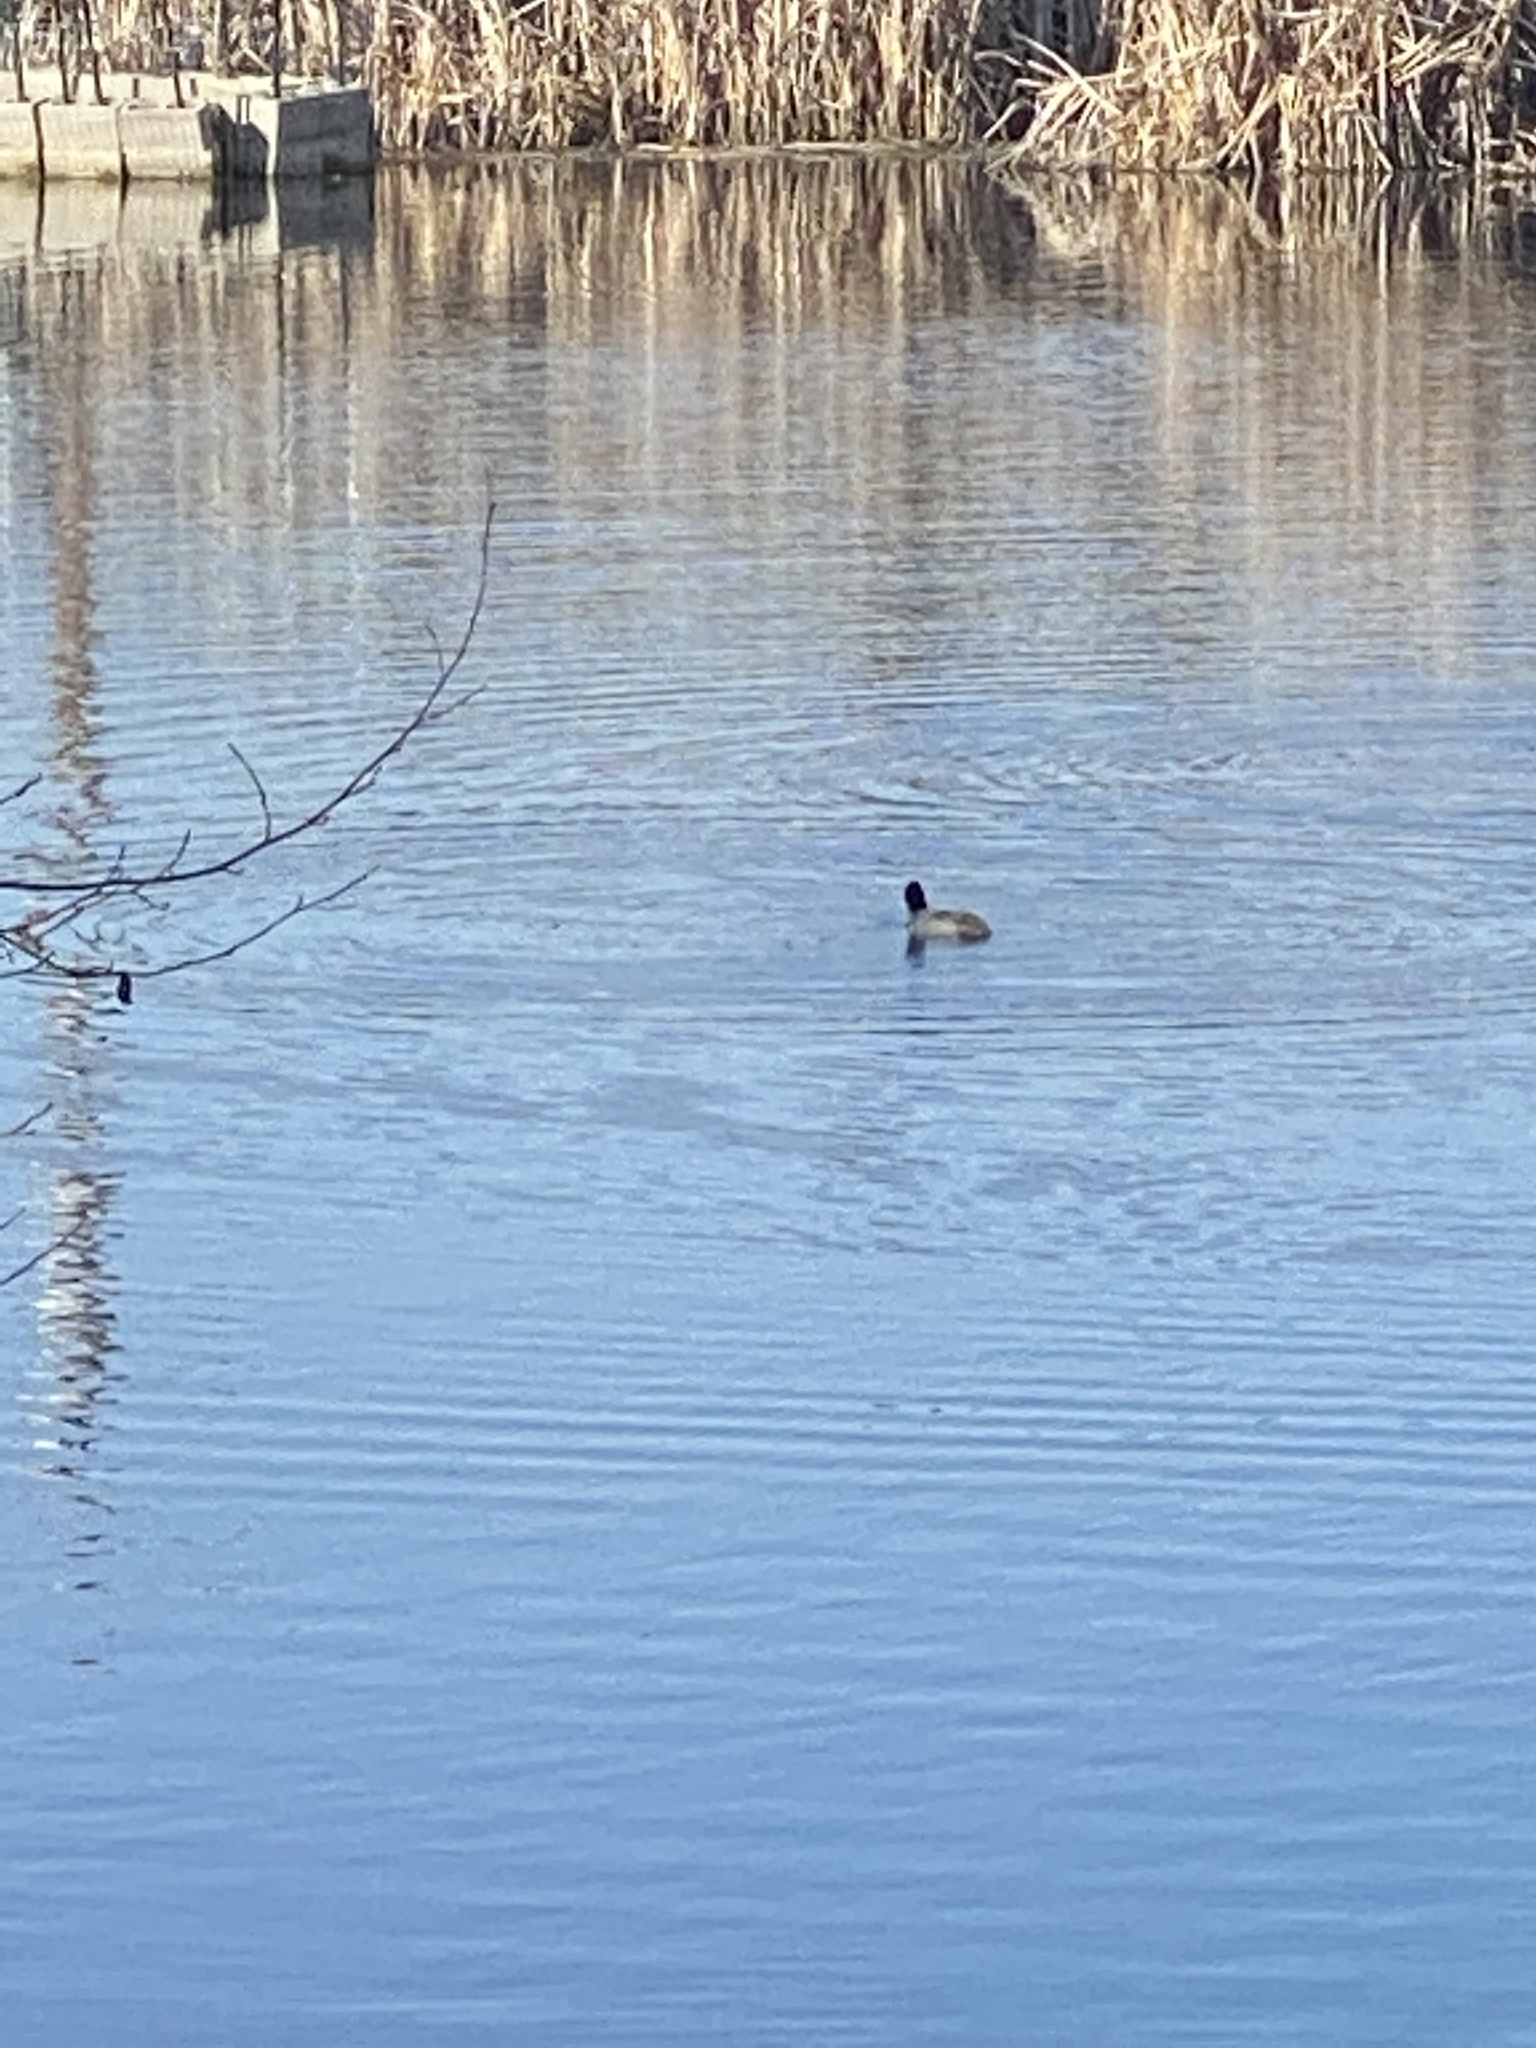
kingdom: Animalia
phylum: Chordata
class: Aves
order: Gruiformes
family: Rallidae
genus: Fulica
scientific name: Fulica americana
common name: American coot
